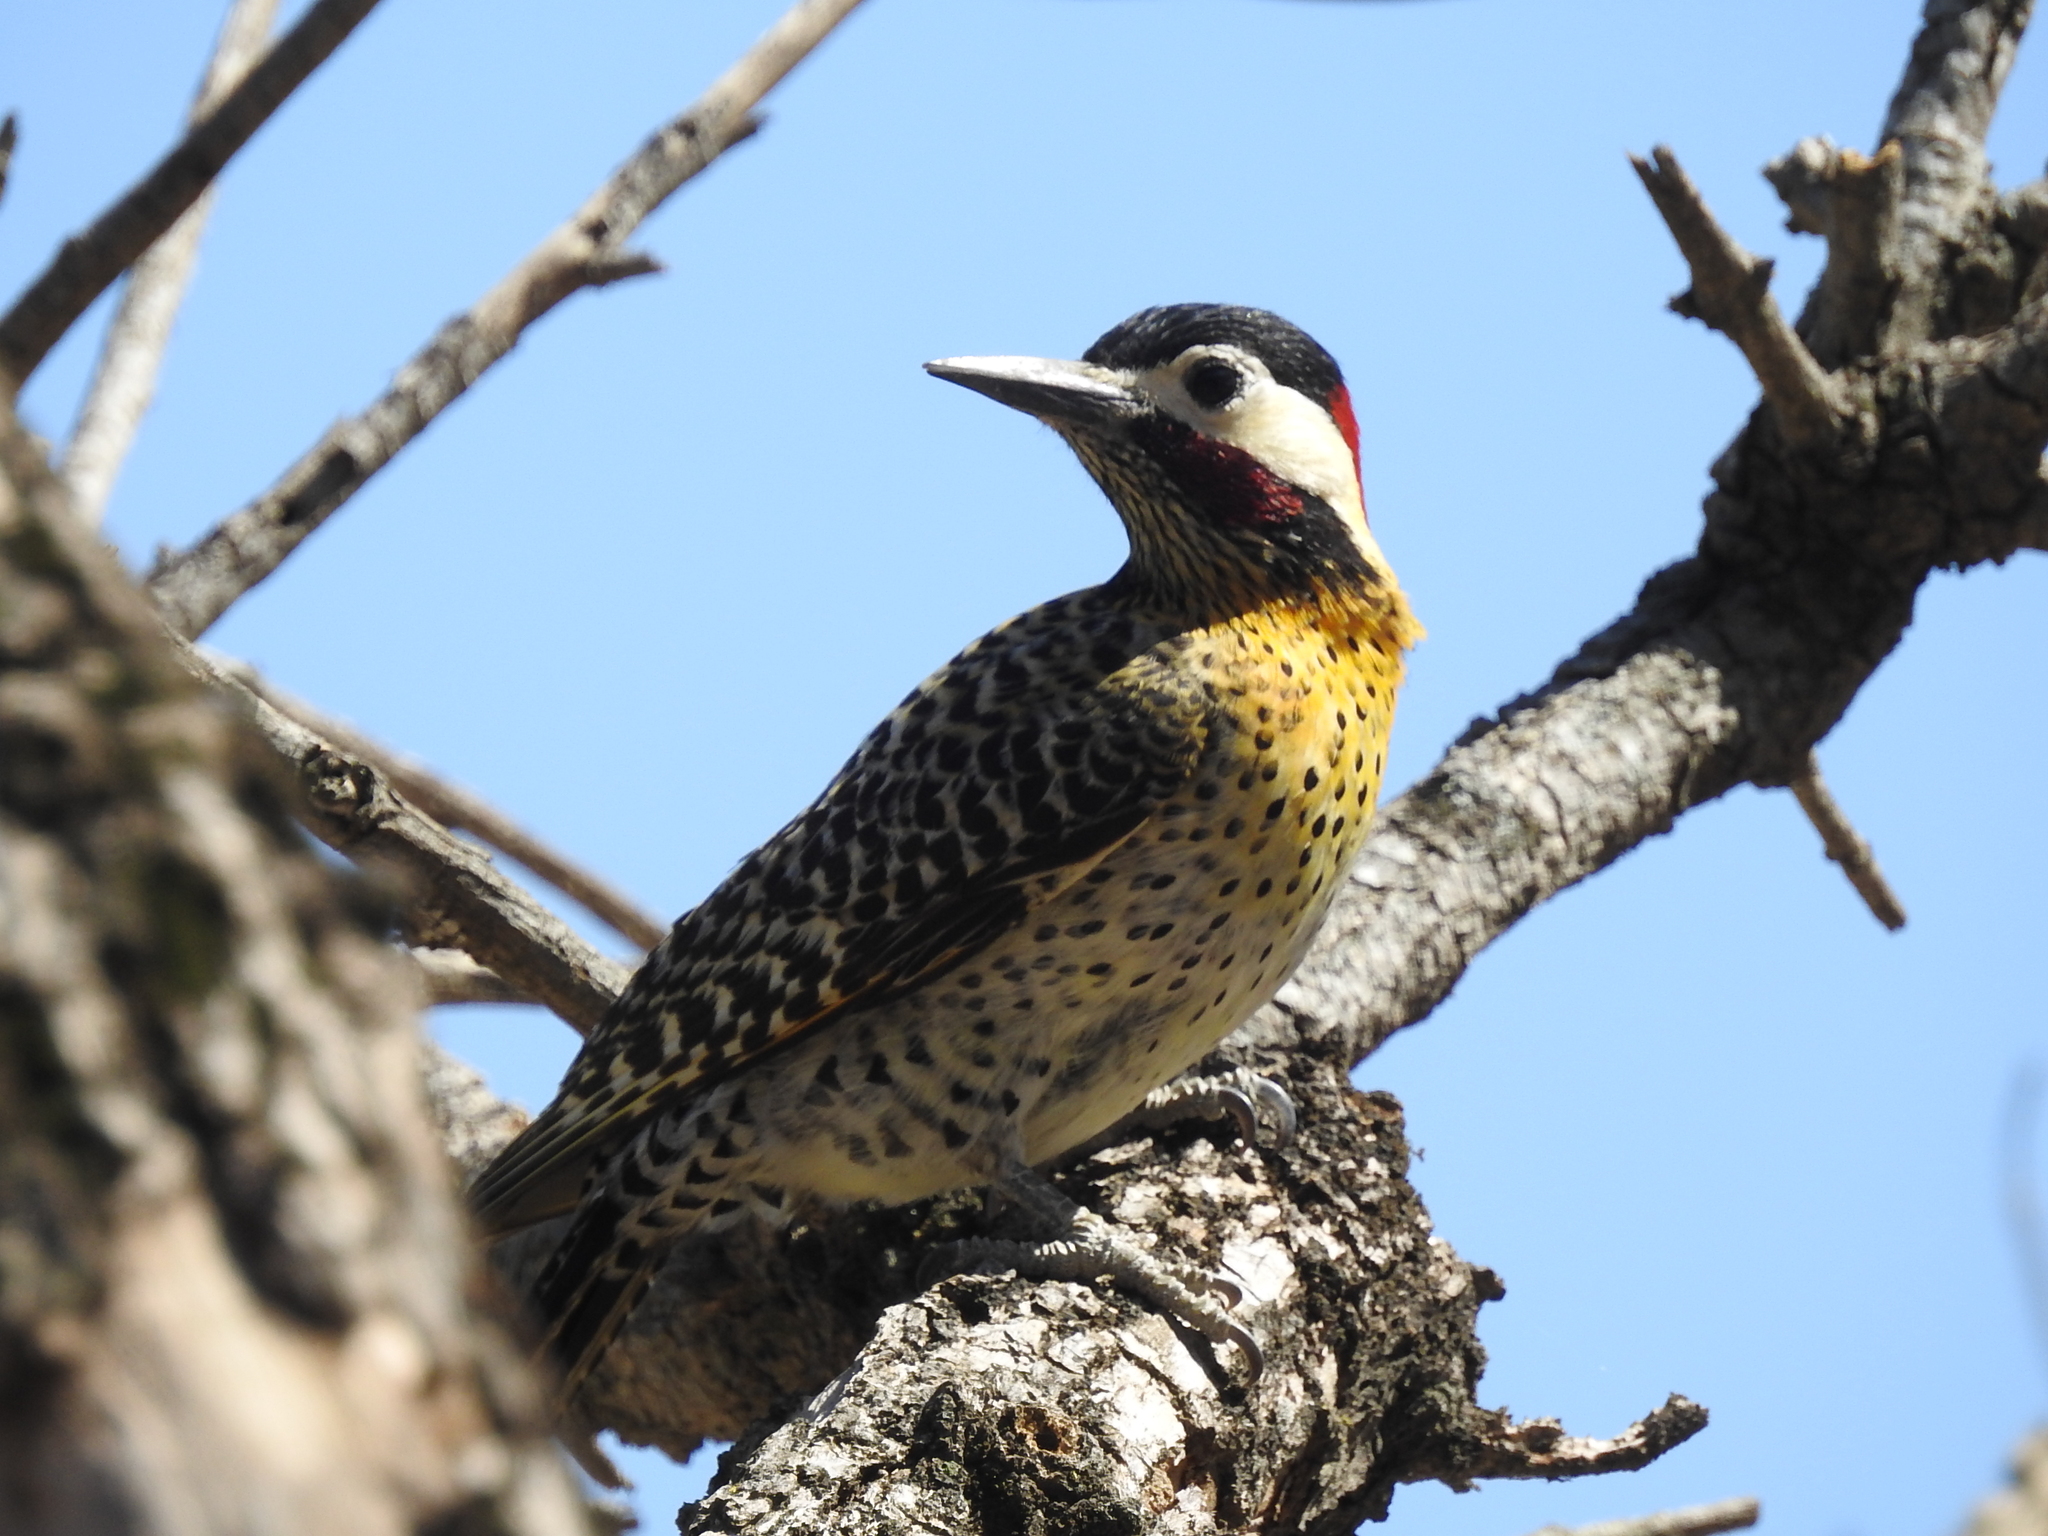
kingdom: Animalia
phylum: Chordata
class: Aves
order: Piciformes
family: Picidae
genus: Colaptes
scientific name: Colaptes melanochloros
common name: Green-barred woodpecker
